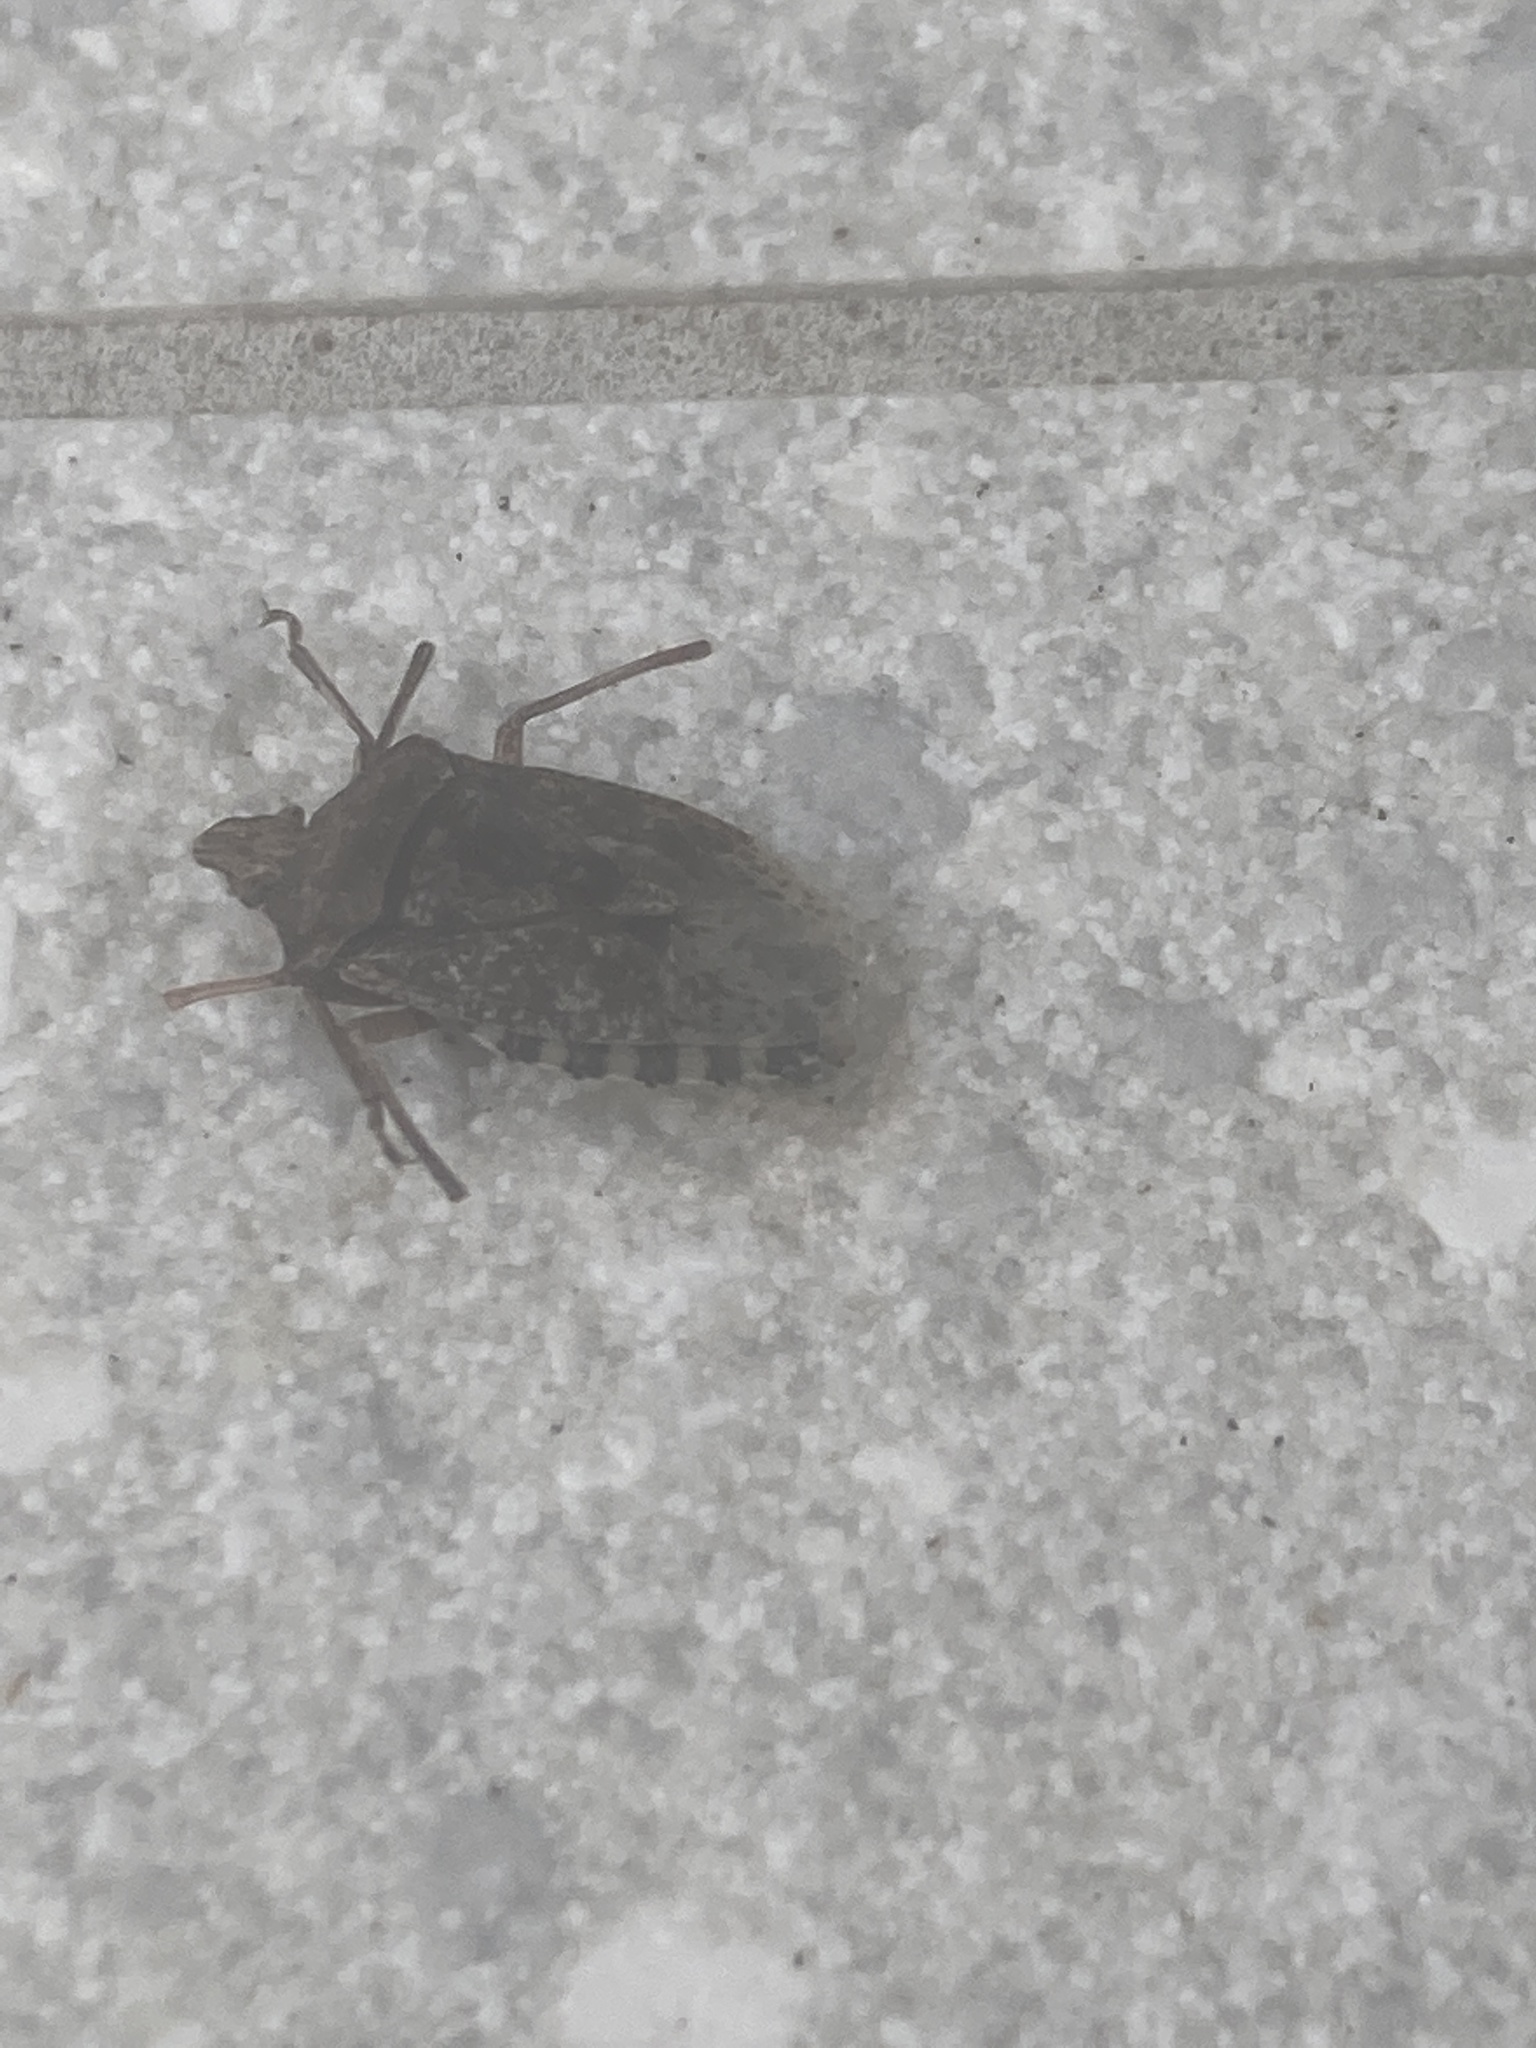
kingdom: Animalia
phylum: Arthropoda
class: Insecta
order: Hemiptera
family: Pentatomidae
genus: Rhaphigaster
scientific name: Rhaphigaster nebulosa
